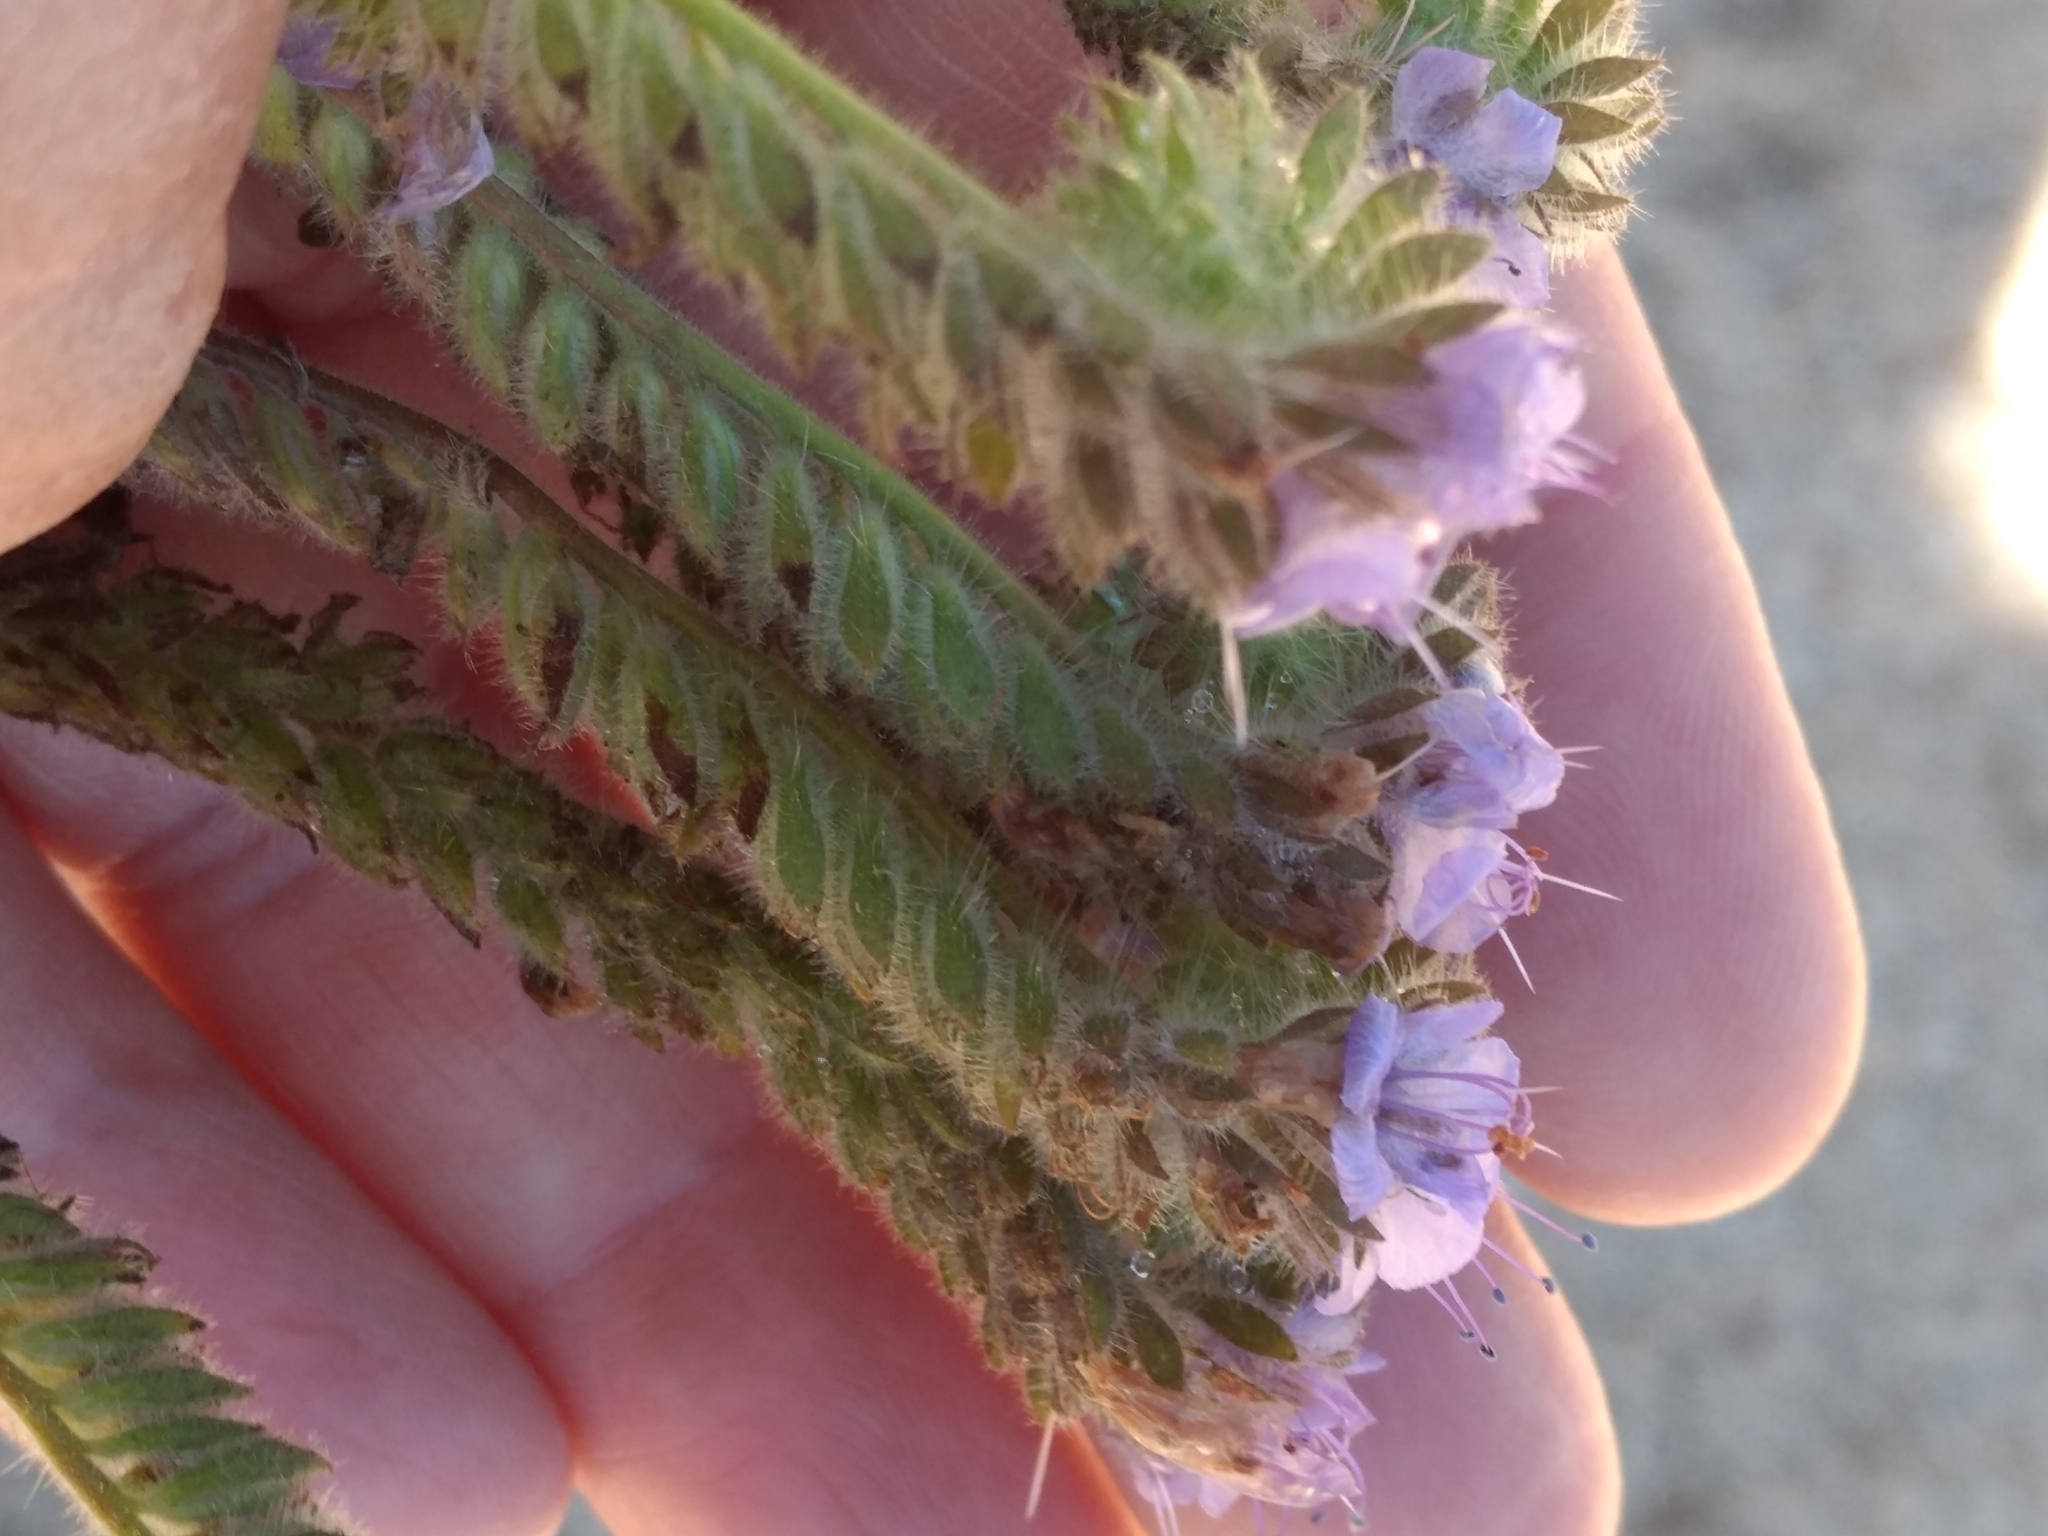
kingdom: Plantae
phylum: Tracheophyta
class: Magnoliopsida
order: Boraginales
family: Hydrophyllaceae
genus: Phacelia
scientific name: Phacelia distans
